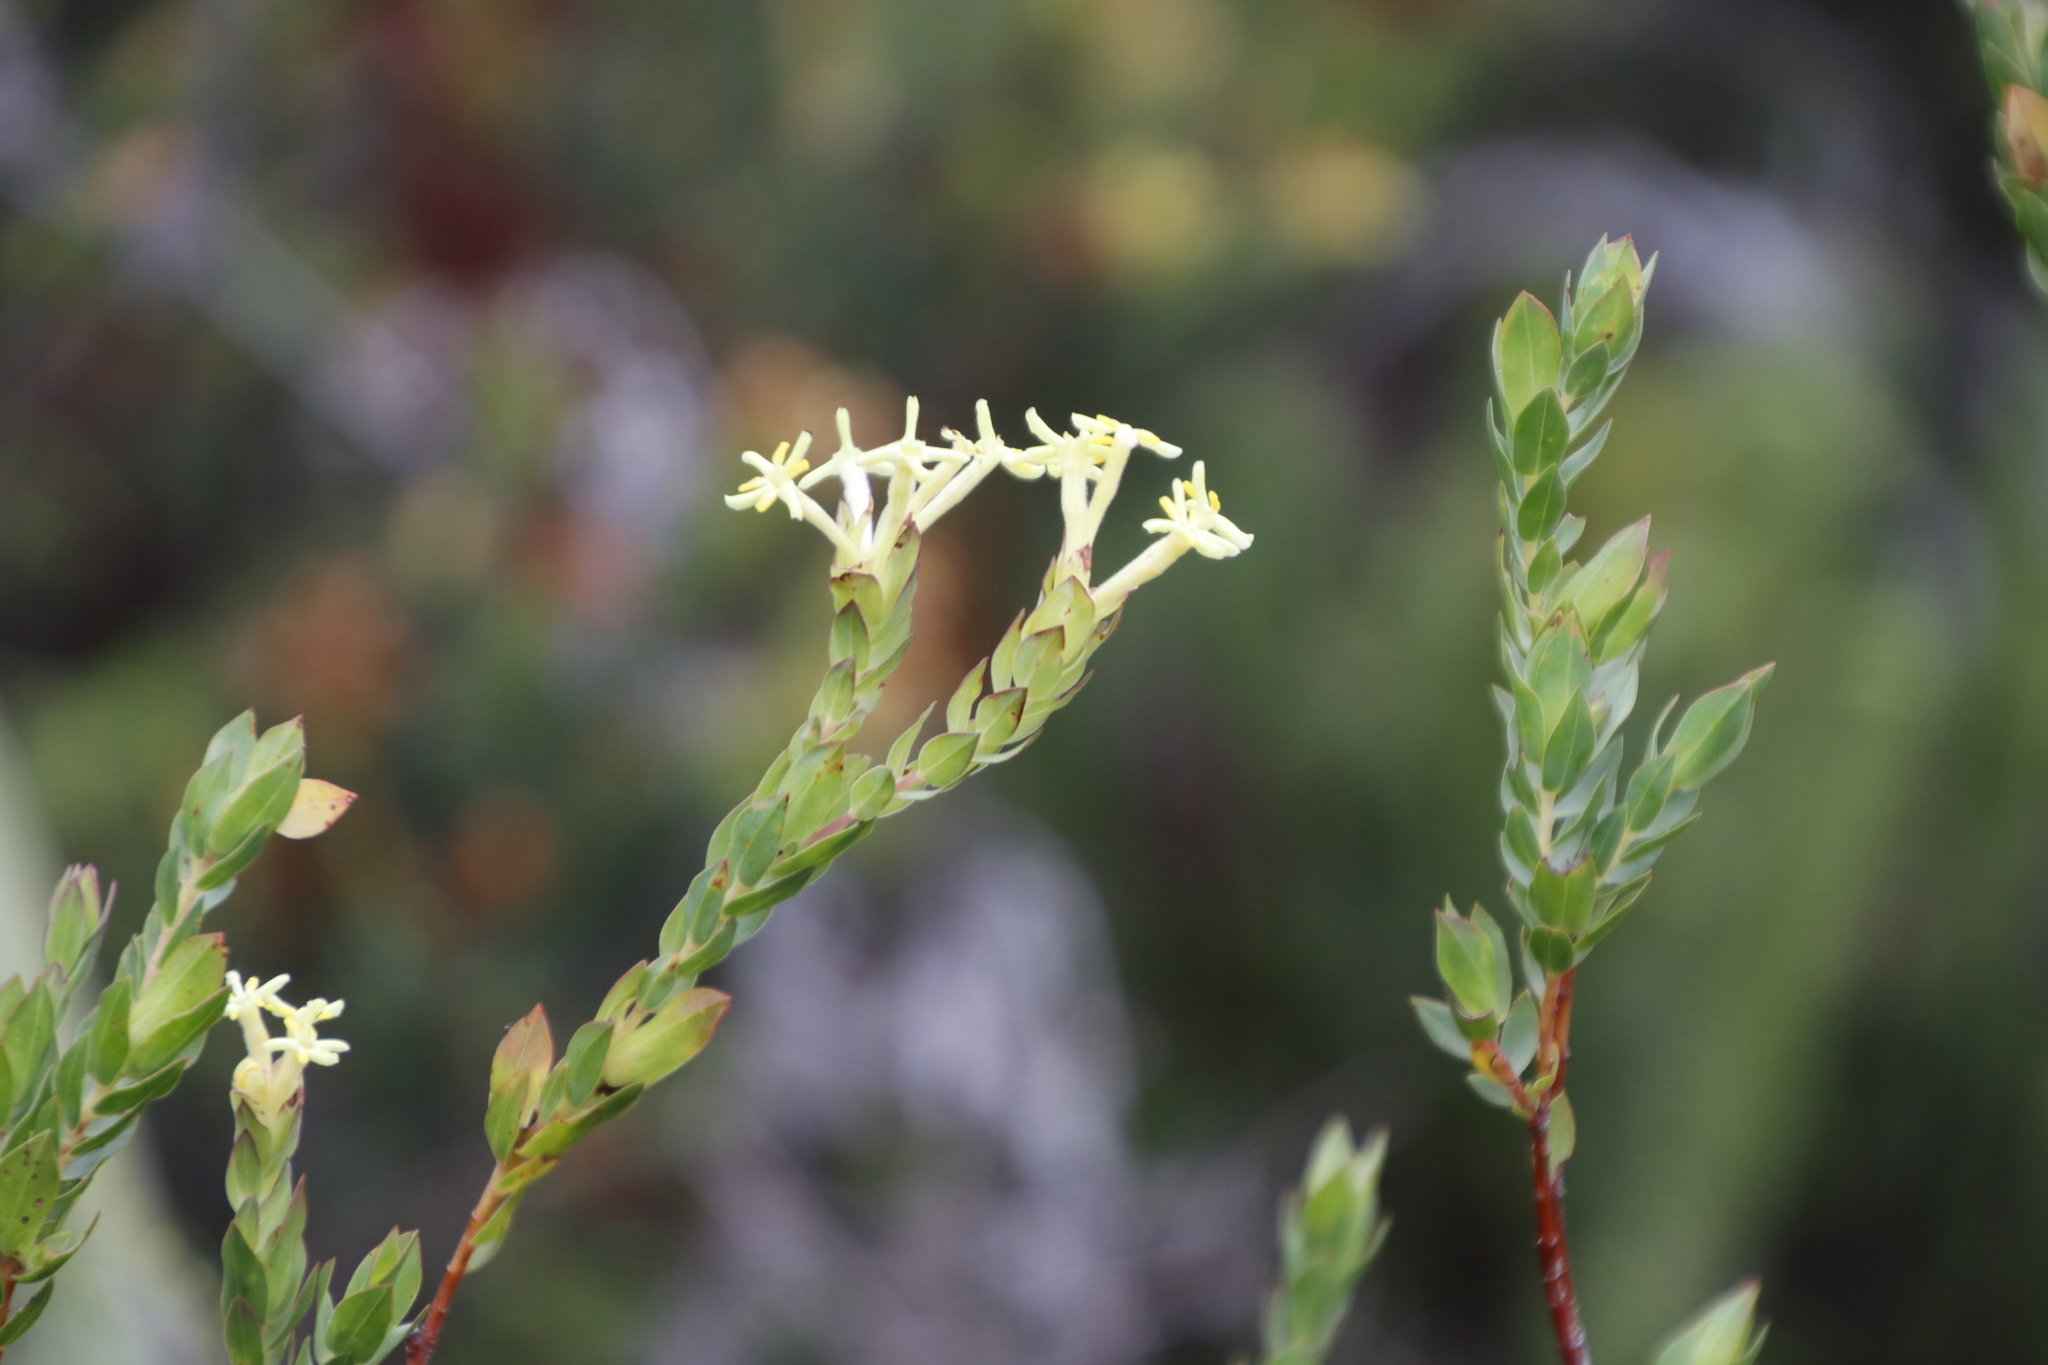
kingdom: Plantae
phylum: Tracheophyta
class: Magnoliopsida
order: Malvales
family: Thymelaeaceae
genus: Gnidia
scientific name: Gnidia oppositifolia
